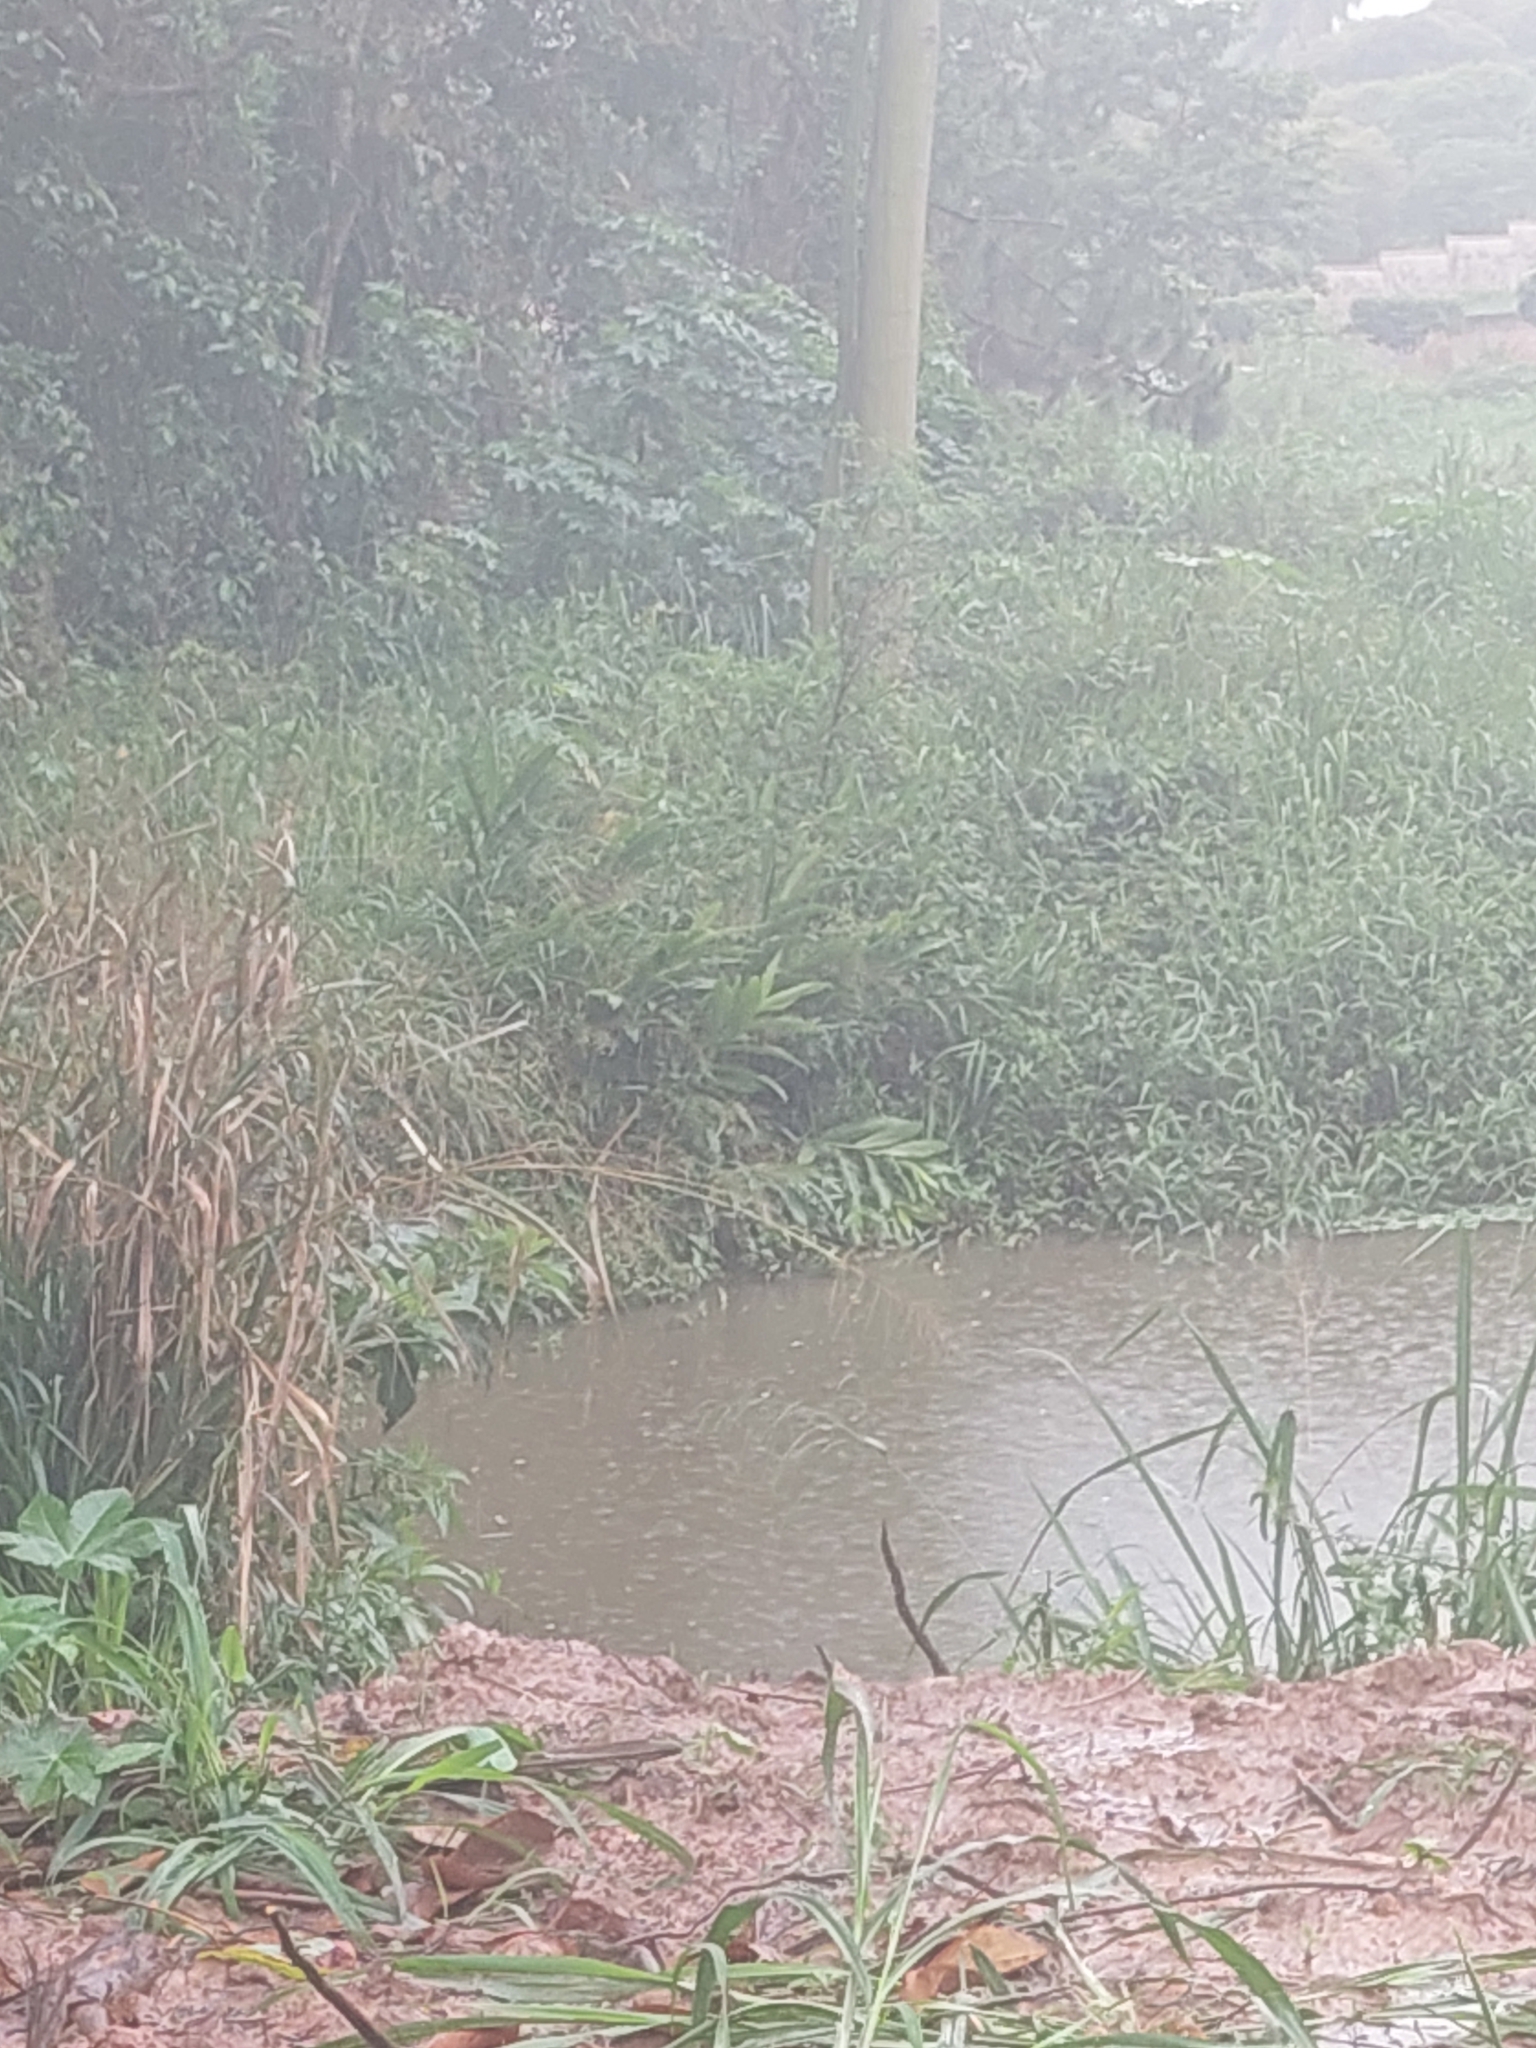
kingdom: Plantae
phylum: Tracheophyta
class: Liliopsida
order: Zingiberales
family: Zingiberaceae
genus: Hedychium
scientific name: Hedychium coronarium
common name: White garland-lily
